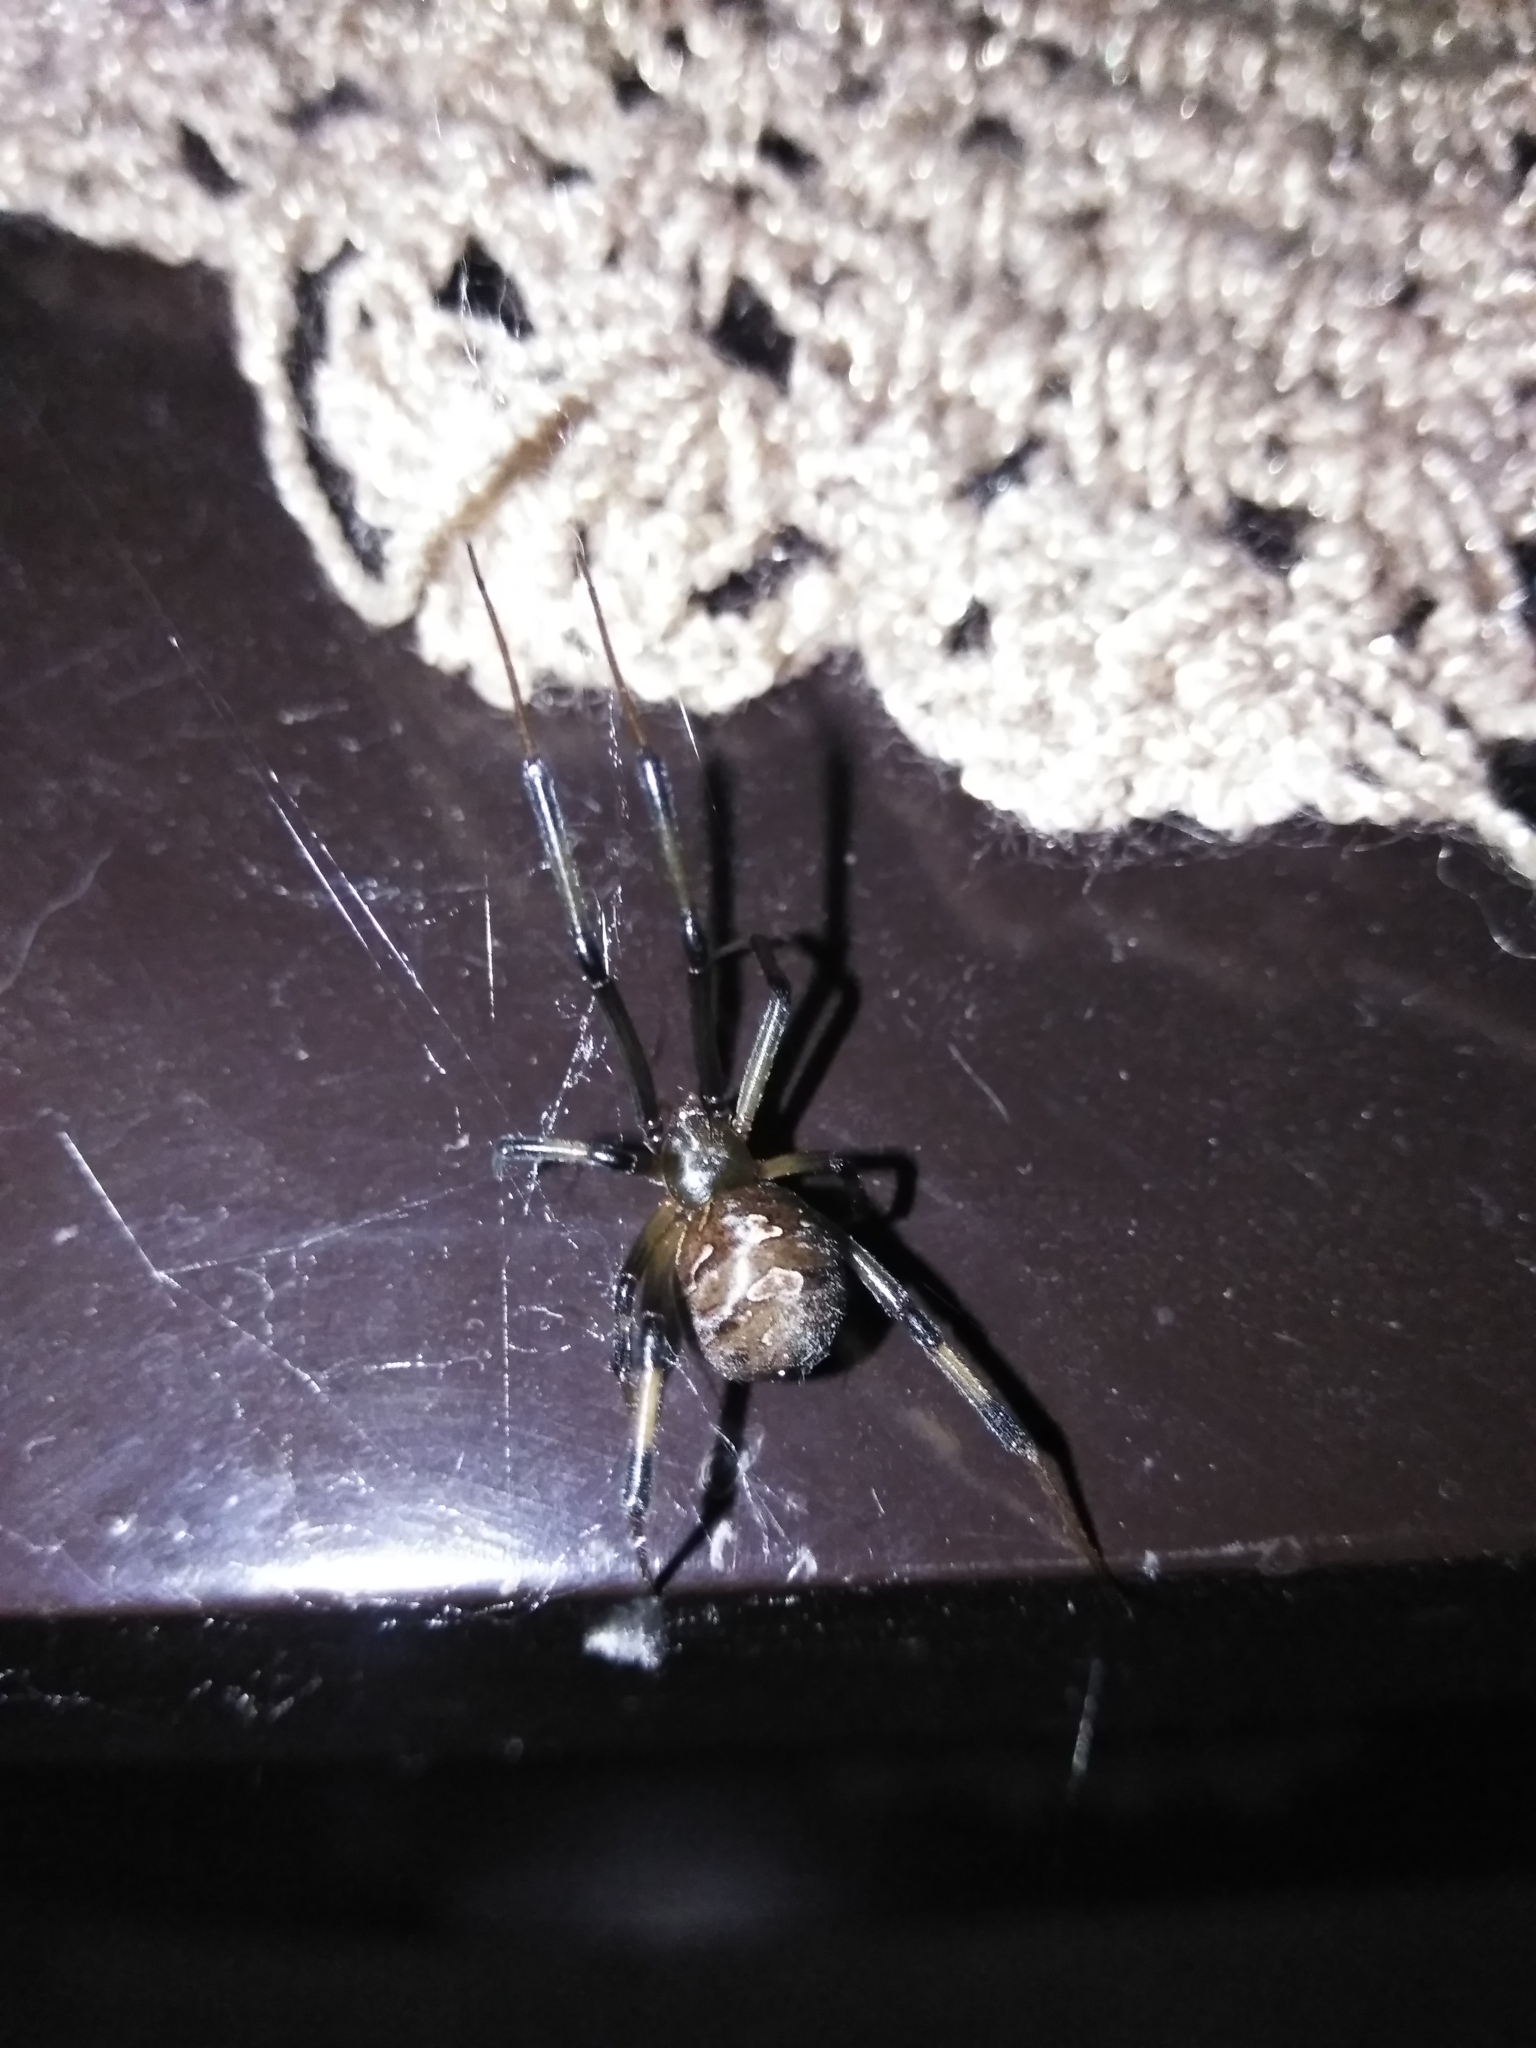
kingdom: Animalia
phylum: Arthropoda
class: Arachnida
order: Araneae
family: Theridiidae
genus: Latrodectus
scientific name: Latrodectus geometricus
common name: Brown widow spider
